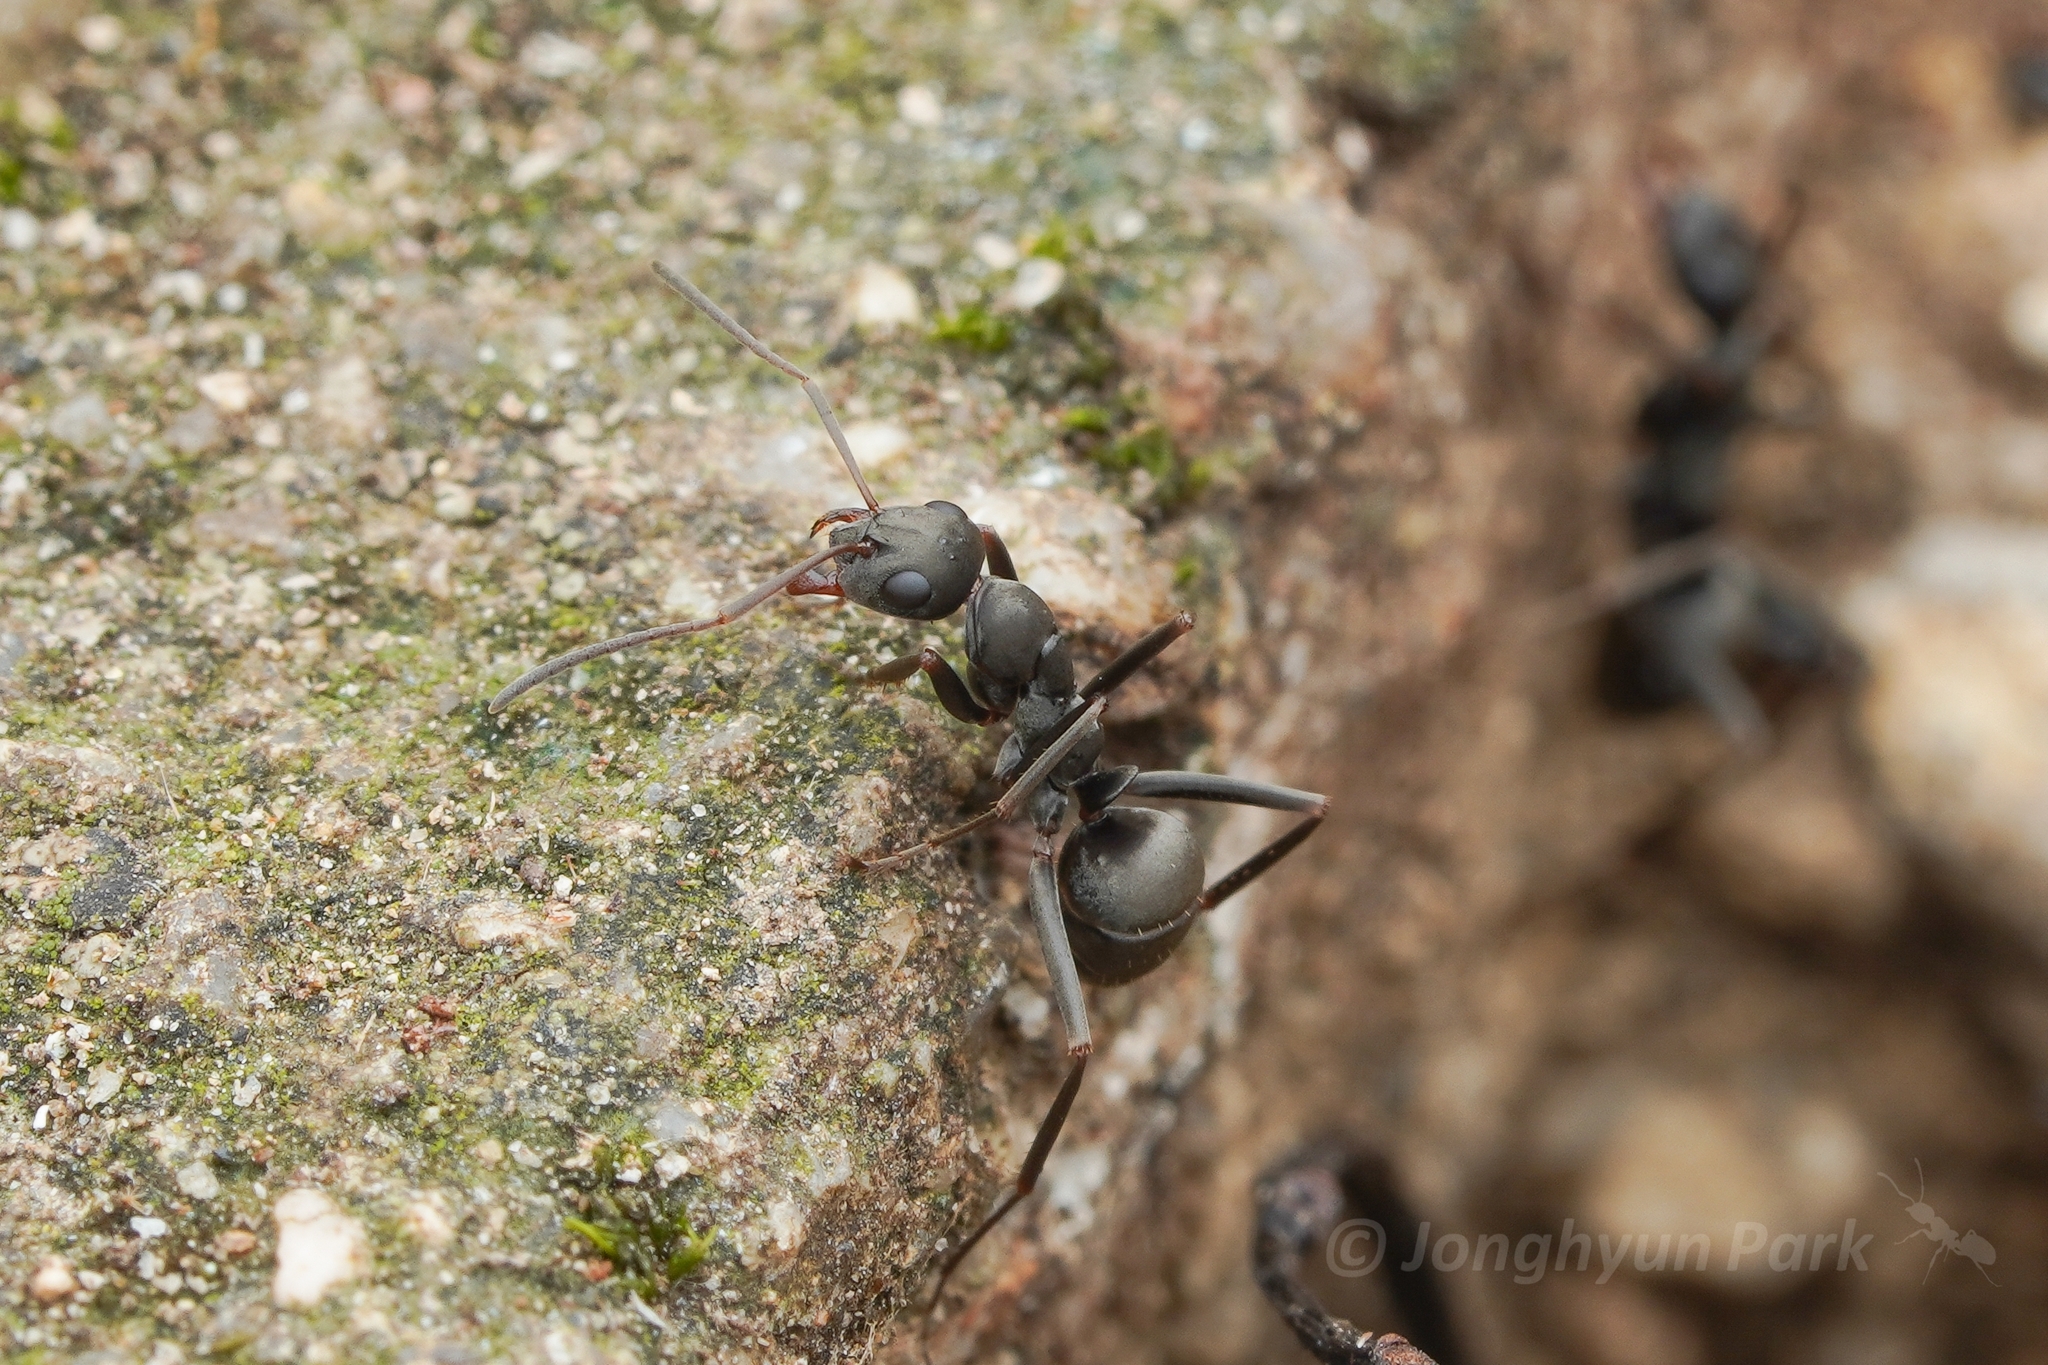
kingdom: Animalia
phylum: Arthropoda
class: Insecta
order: Hymenoptera
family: Formicidae
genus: Formica
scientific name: Formica japonica
